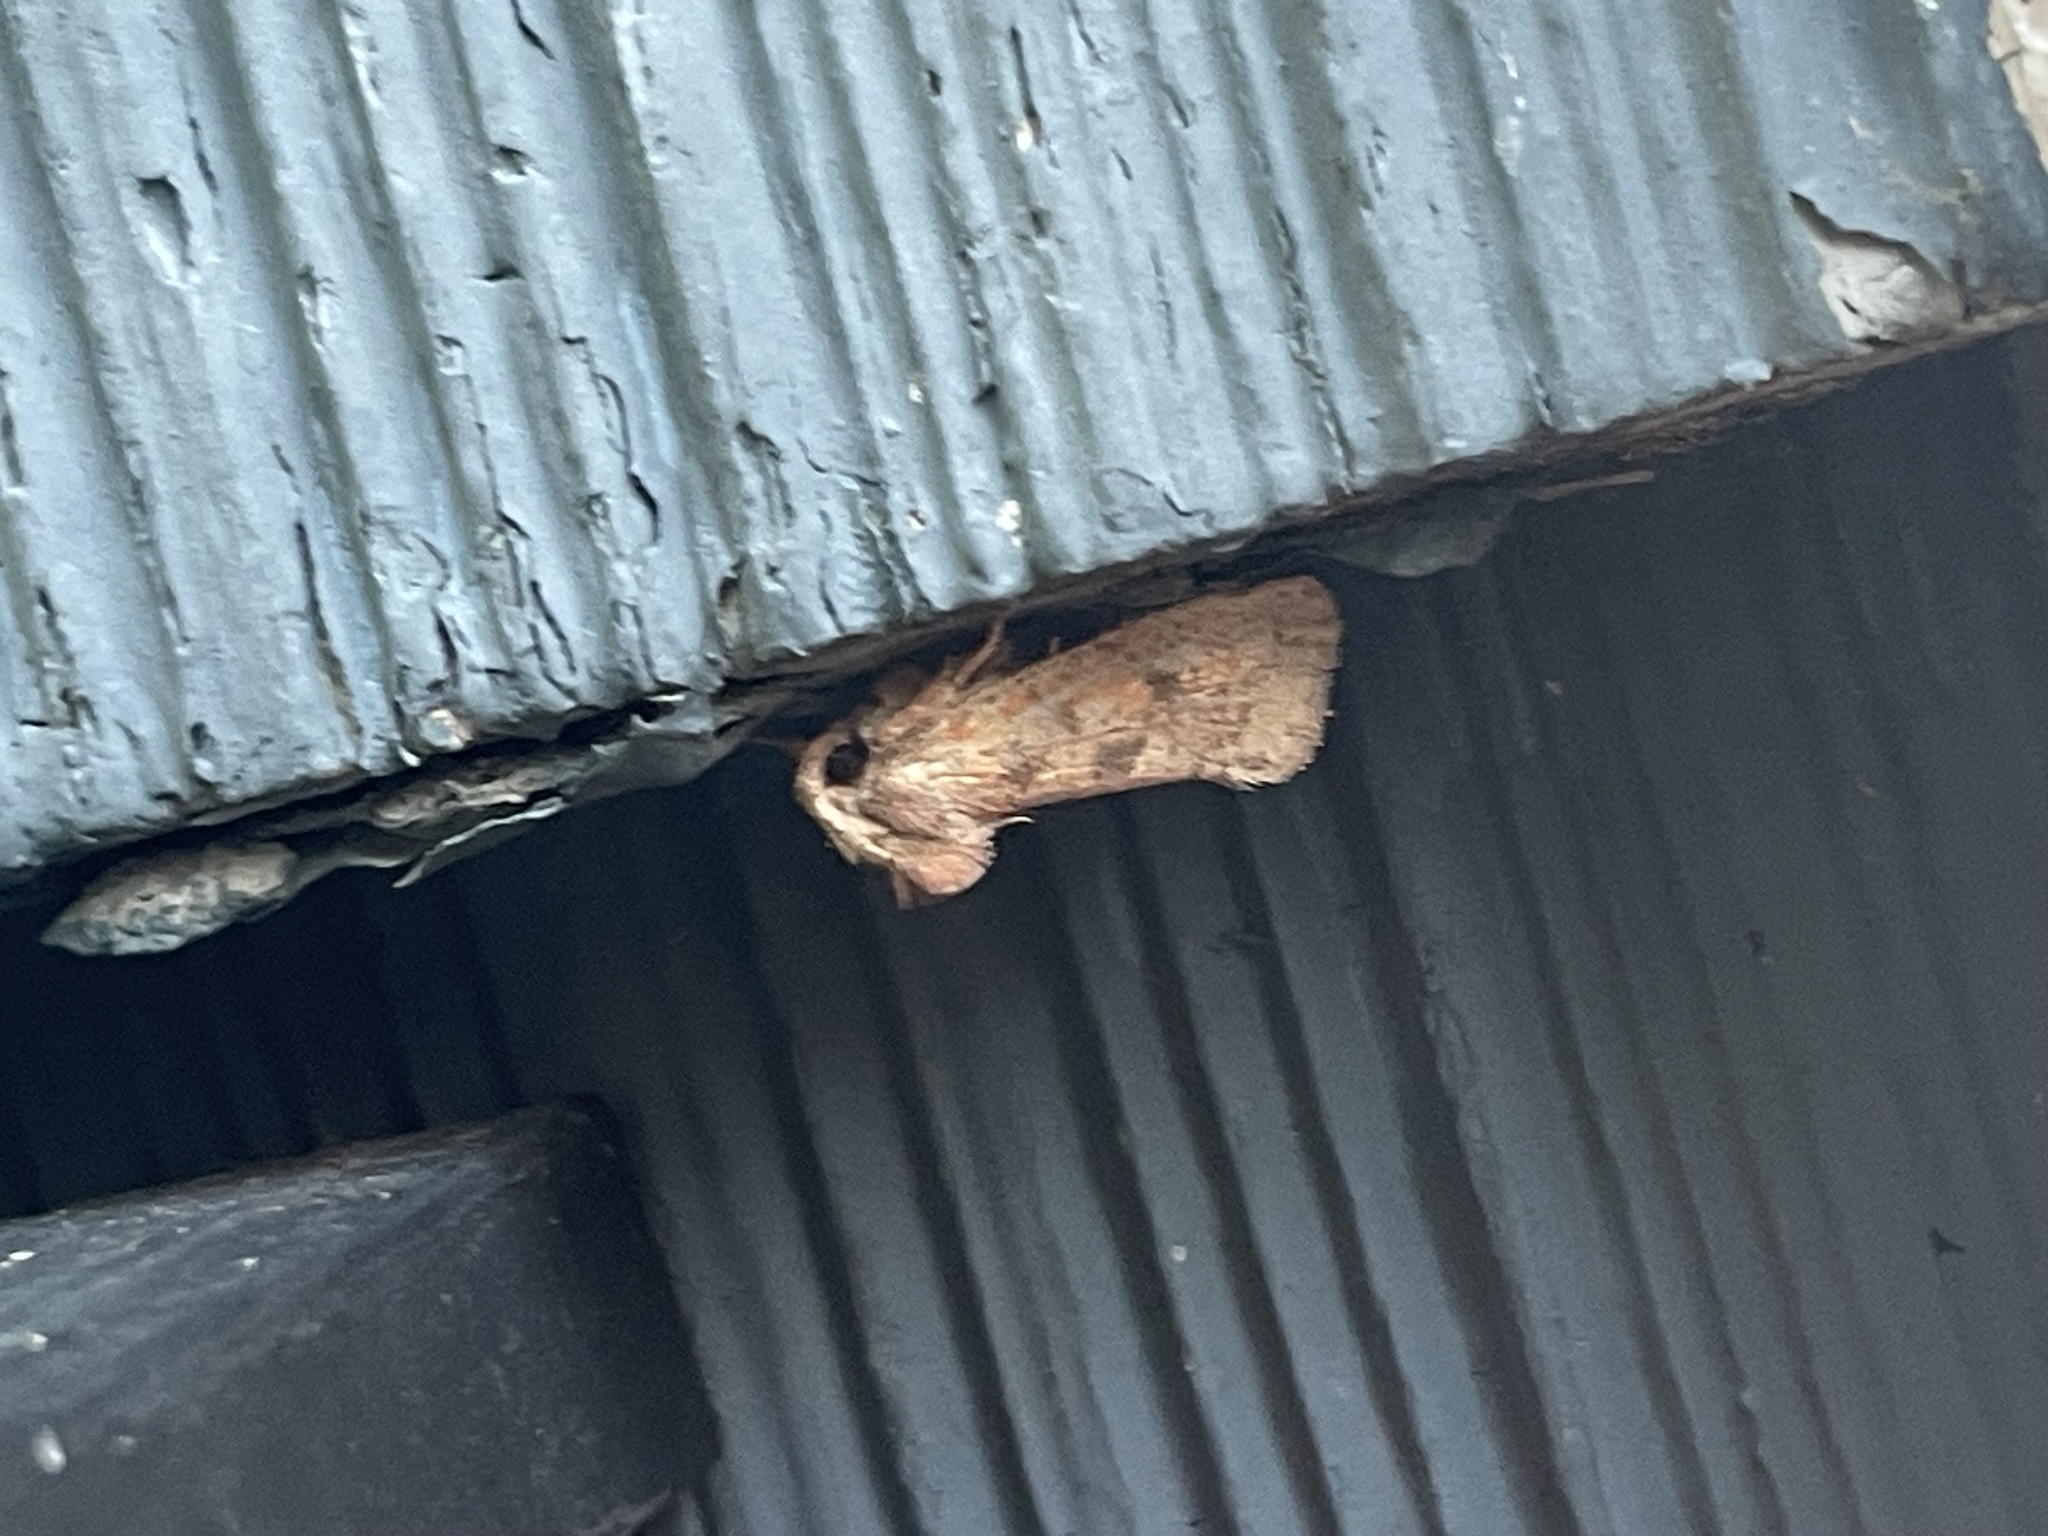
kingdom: Animalia
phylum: Arthropoda
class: Insecta
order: Lepidoptera
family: Tineidae
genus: Acrolophus
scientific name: Acrolophus plumifrontella
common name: Eastern grass tubeworm moth
